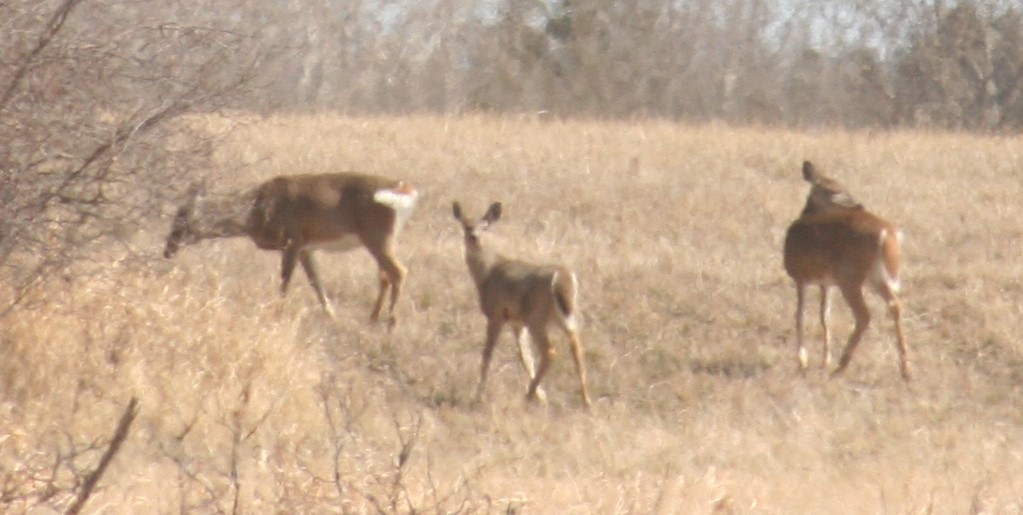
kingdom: Animalia
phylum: Chordata
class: Mammalia
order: Artiodactyla
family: Cervidae
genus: Odocoileus
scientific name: Odocoileus virginianus
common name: White-tailed deer
